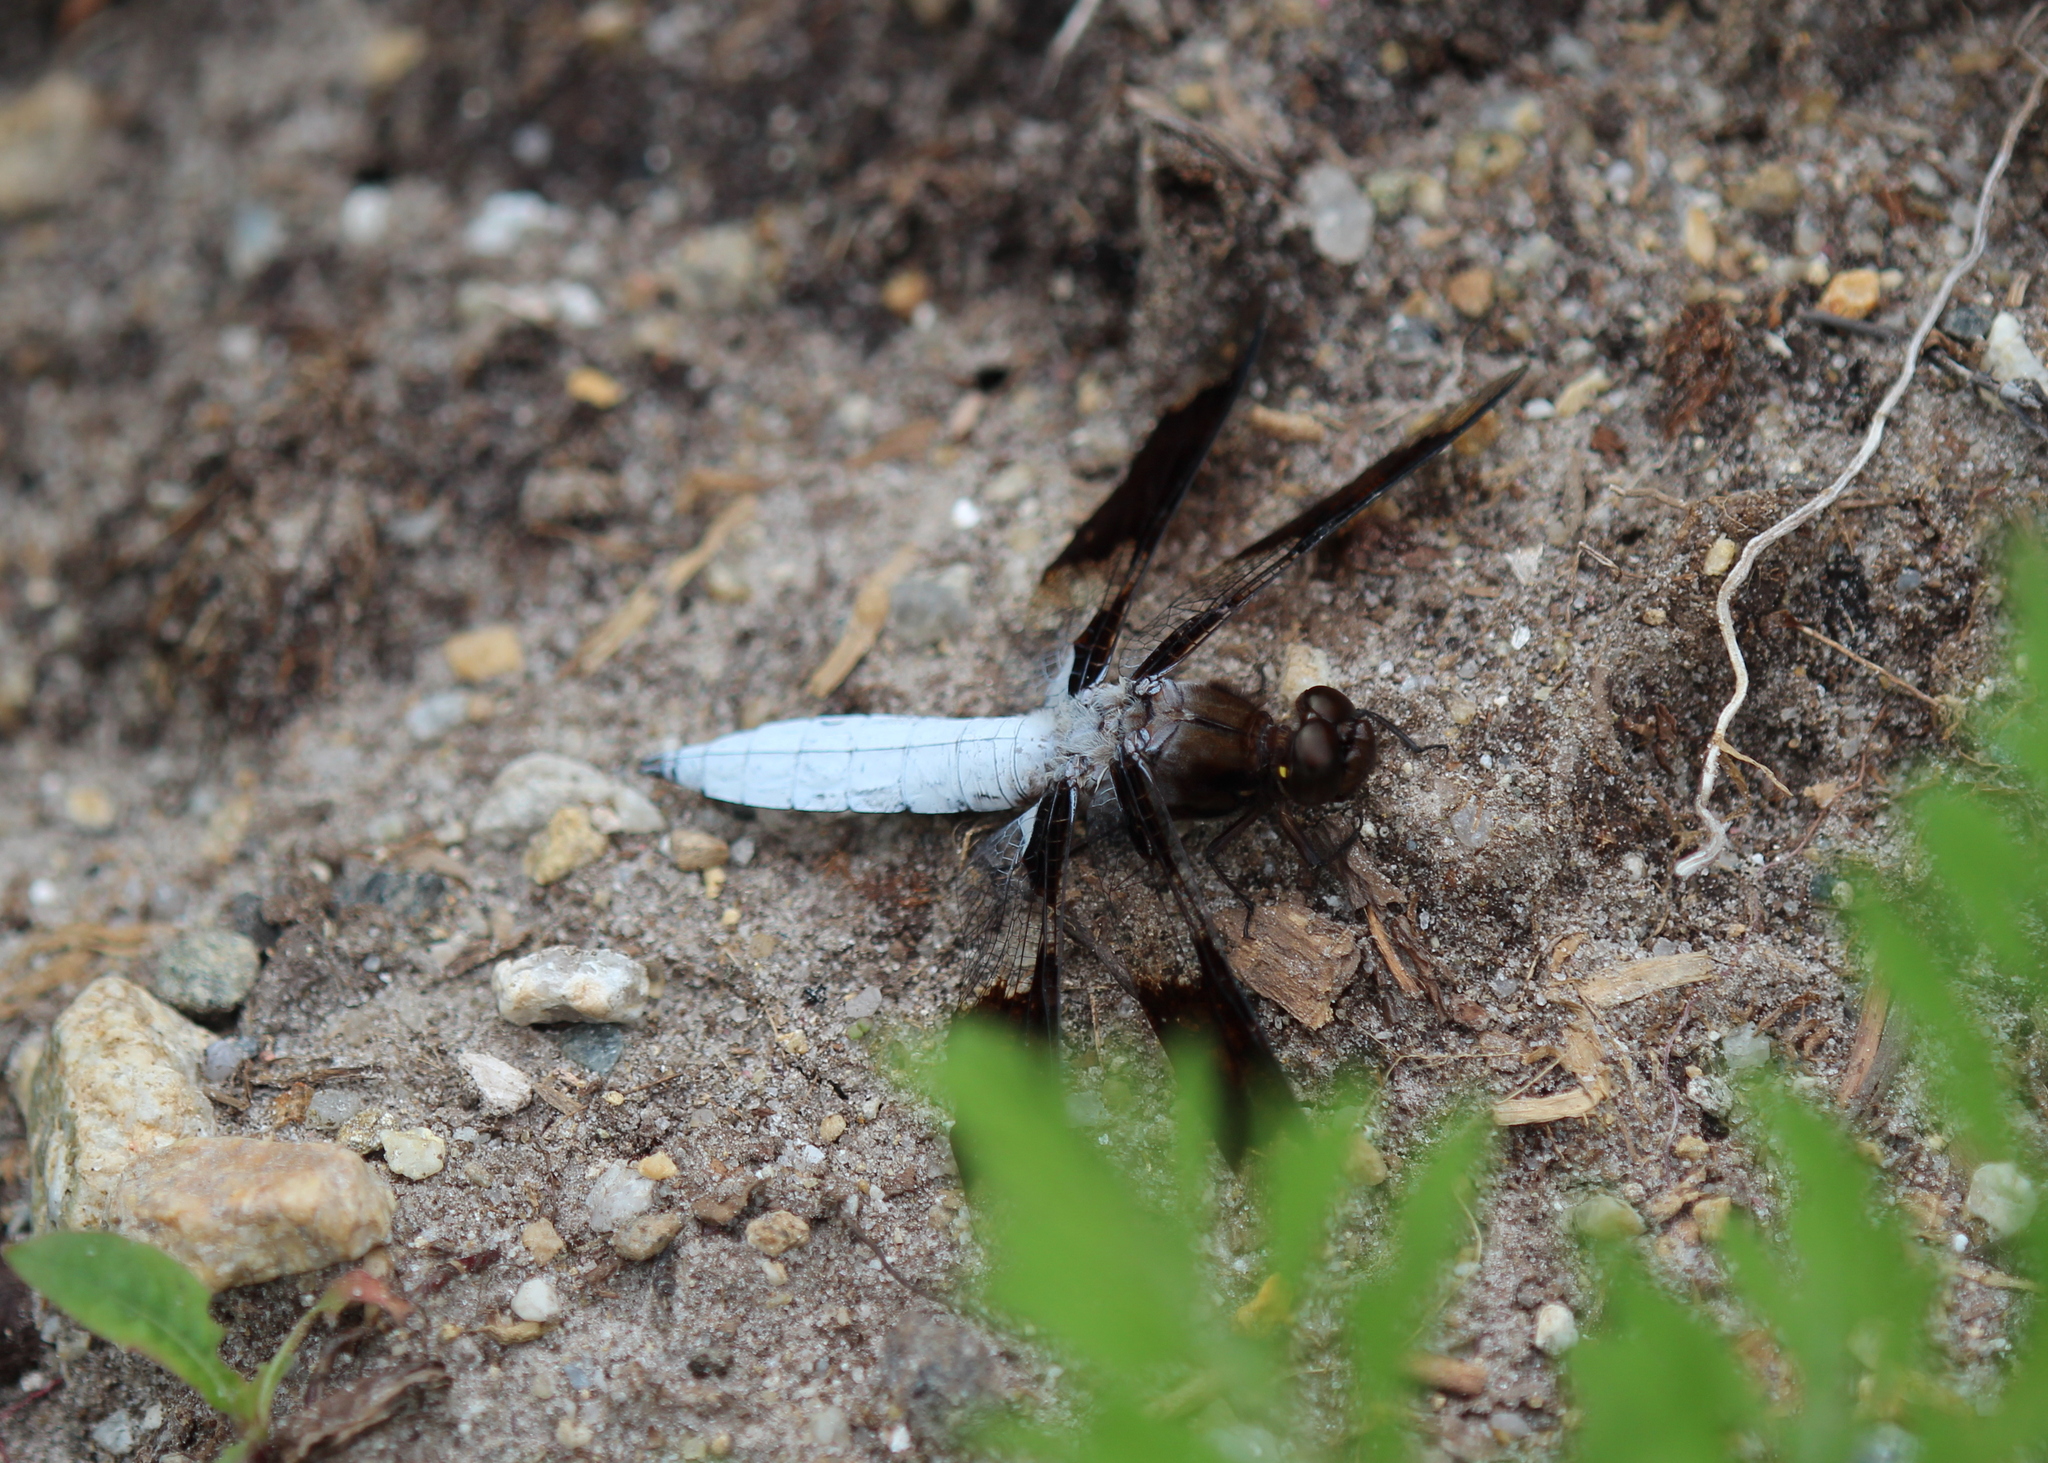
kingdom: Animalia
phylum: Arthropoda
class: Insecta
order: Odonata
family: Libellulidae
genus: Plathemis
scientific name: Plathemis lydia
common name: Common whitetail
